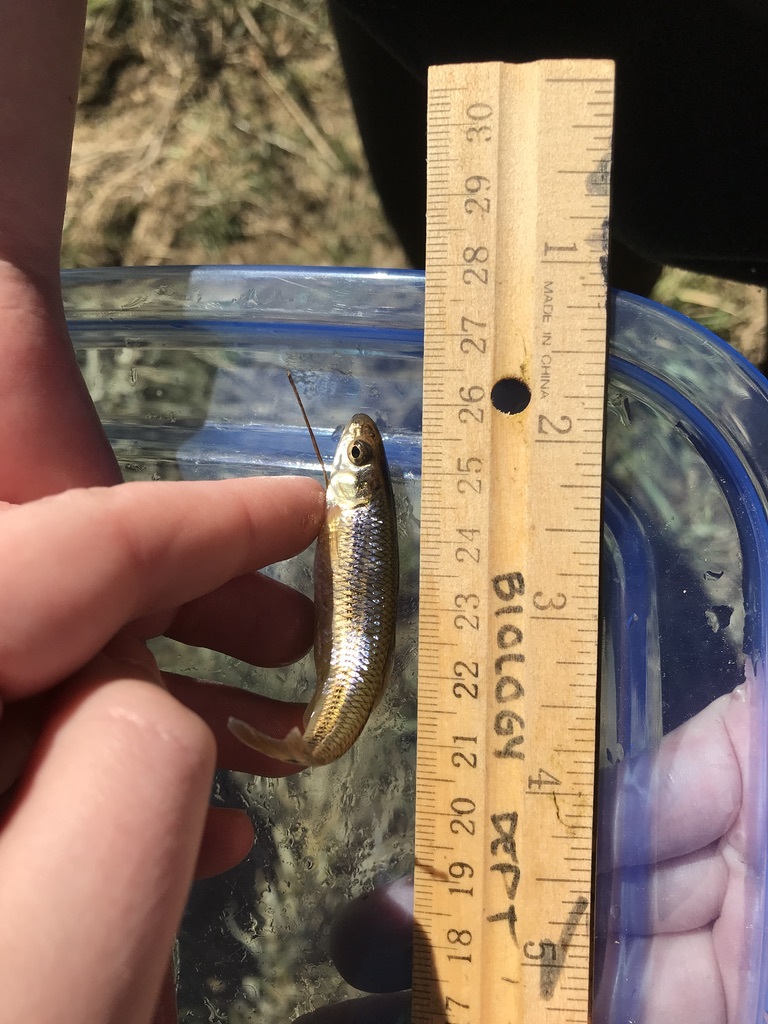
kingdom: Animalia
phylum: Chordata
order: Cypriniformes
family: Cyprinidae
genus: Pimephales
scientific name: Pimephales notatus
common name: Bluntnose minnow
